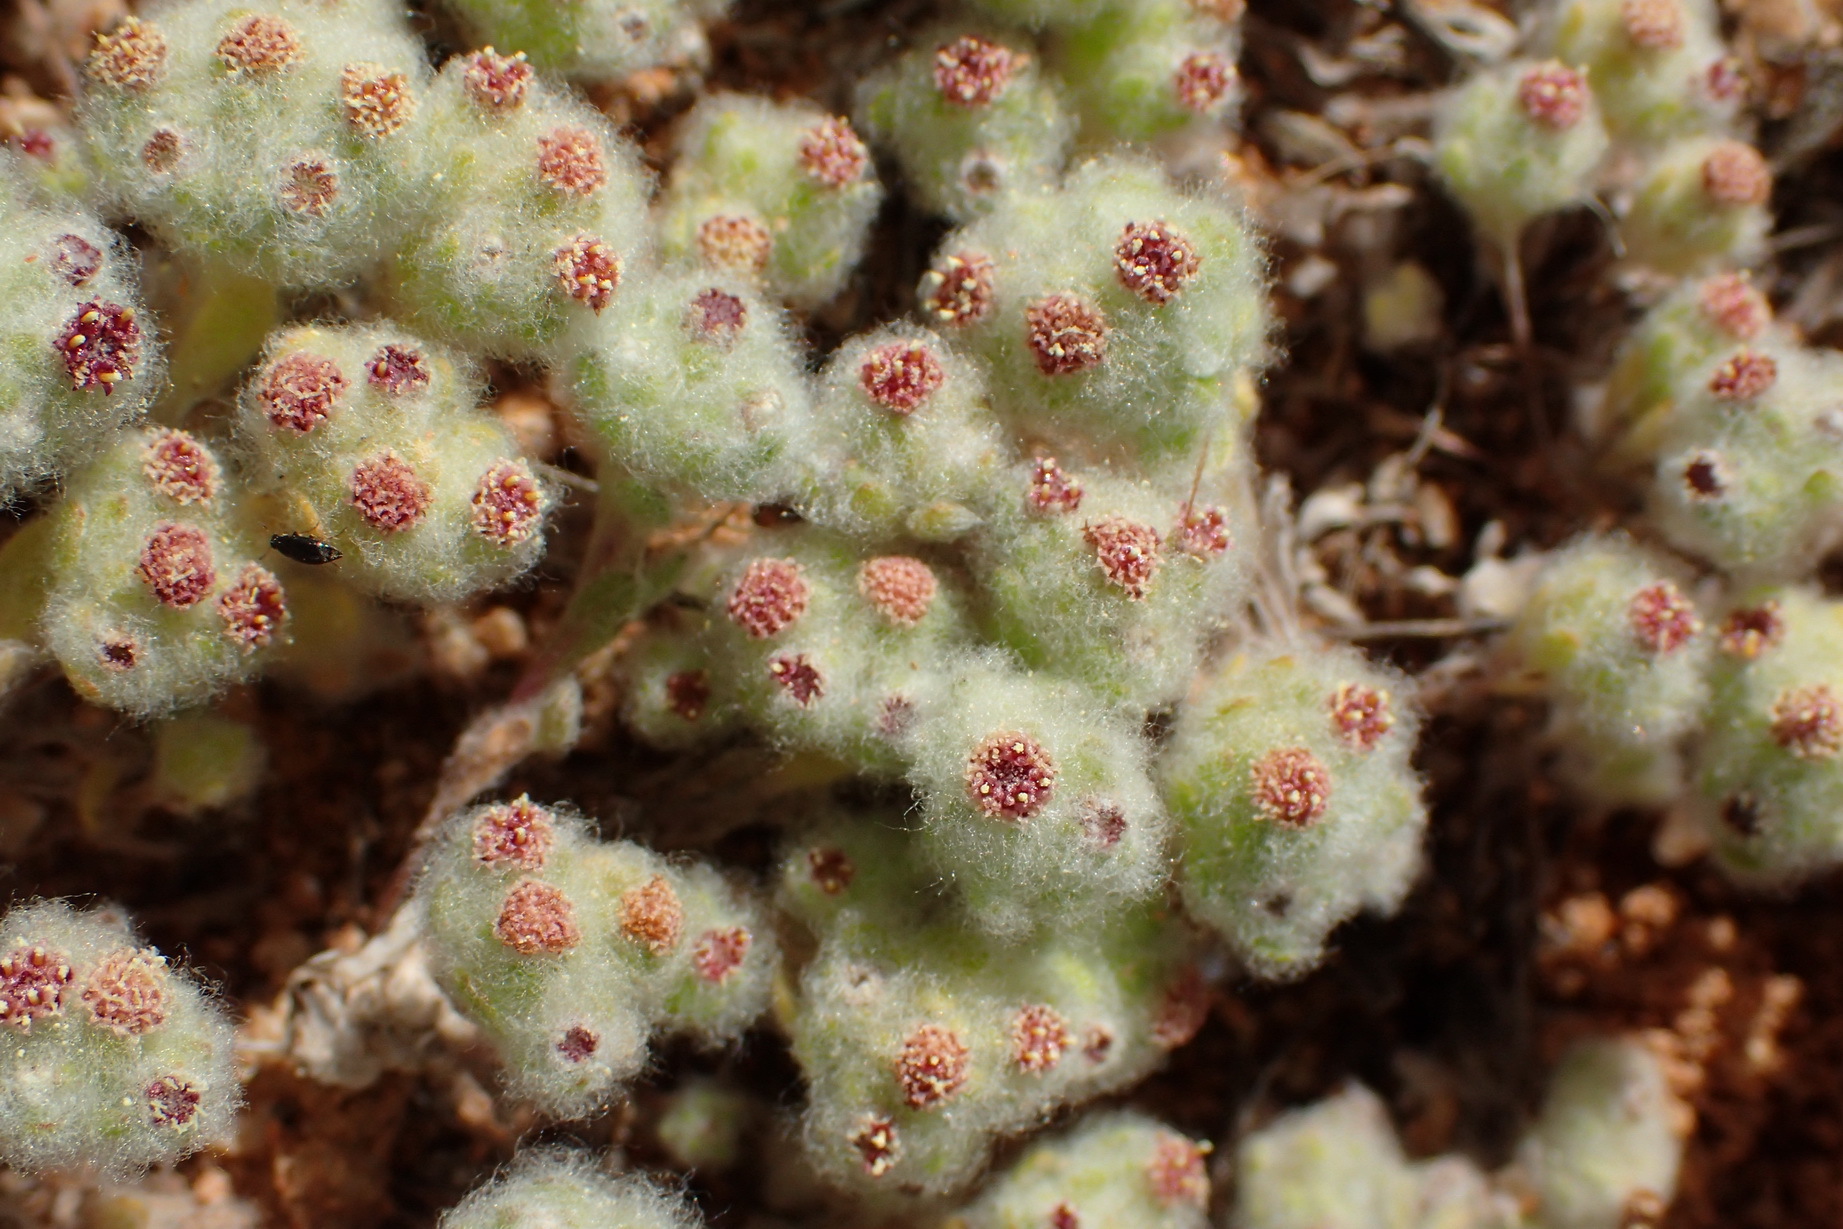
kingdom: Plantae
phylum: Tracheophyta
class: Magnoliopsida
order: Asterales
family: Asteraceae
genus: Ifloga
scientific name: Ifloga molluginoides
